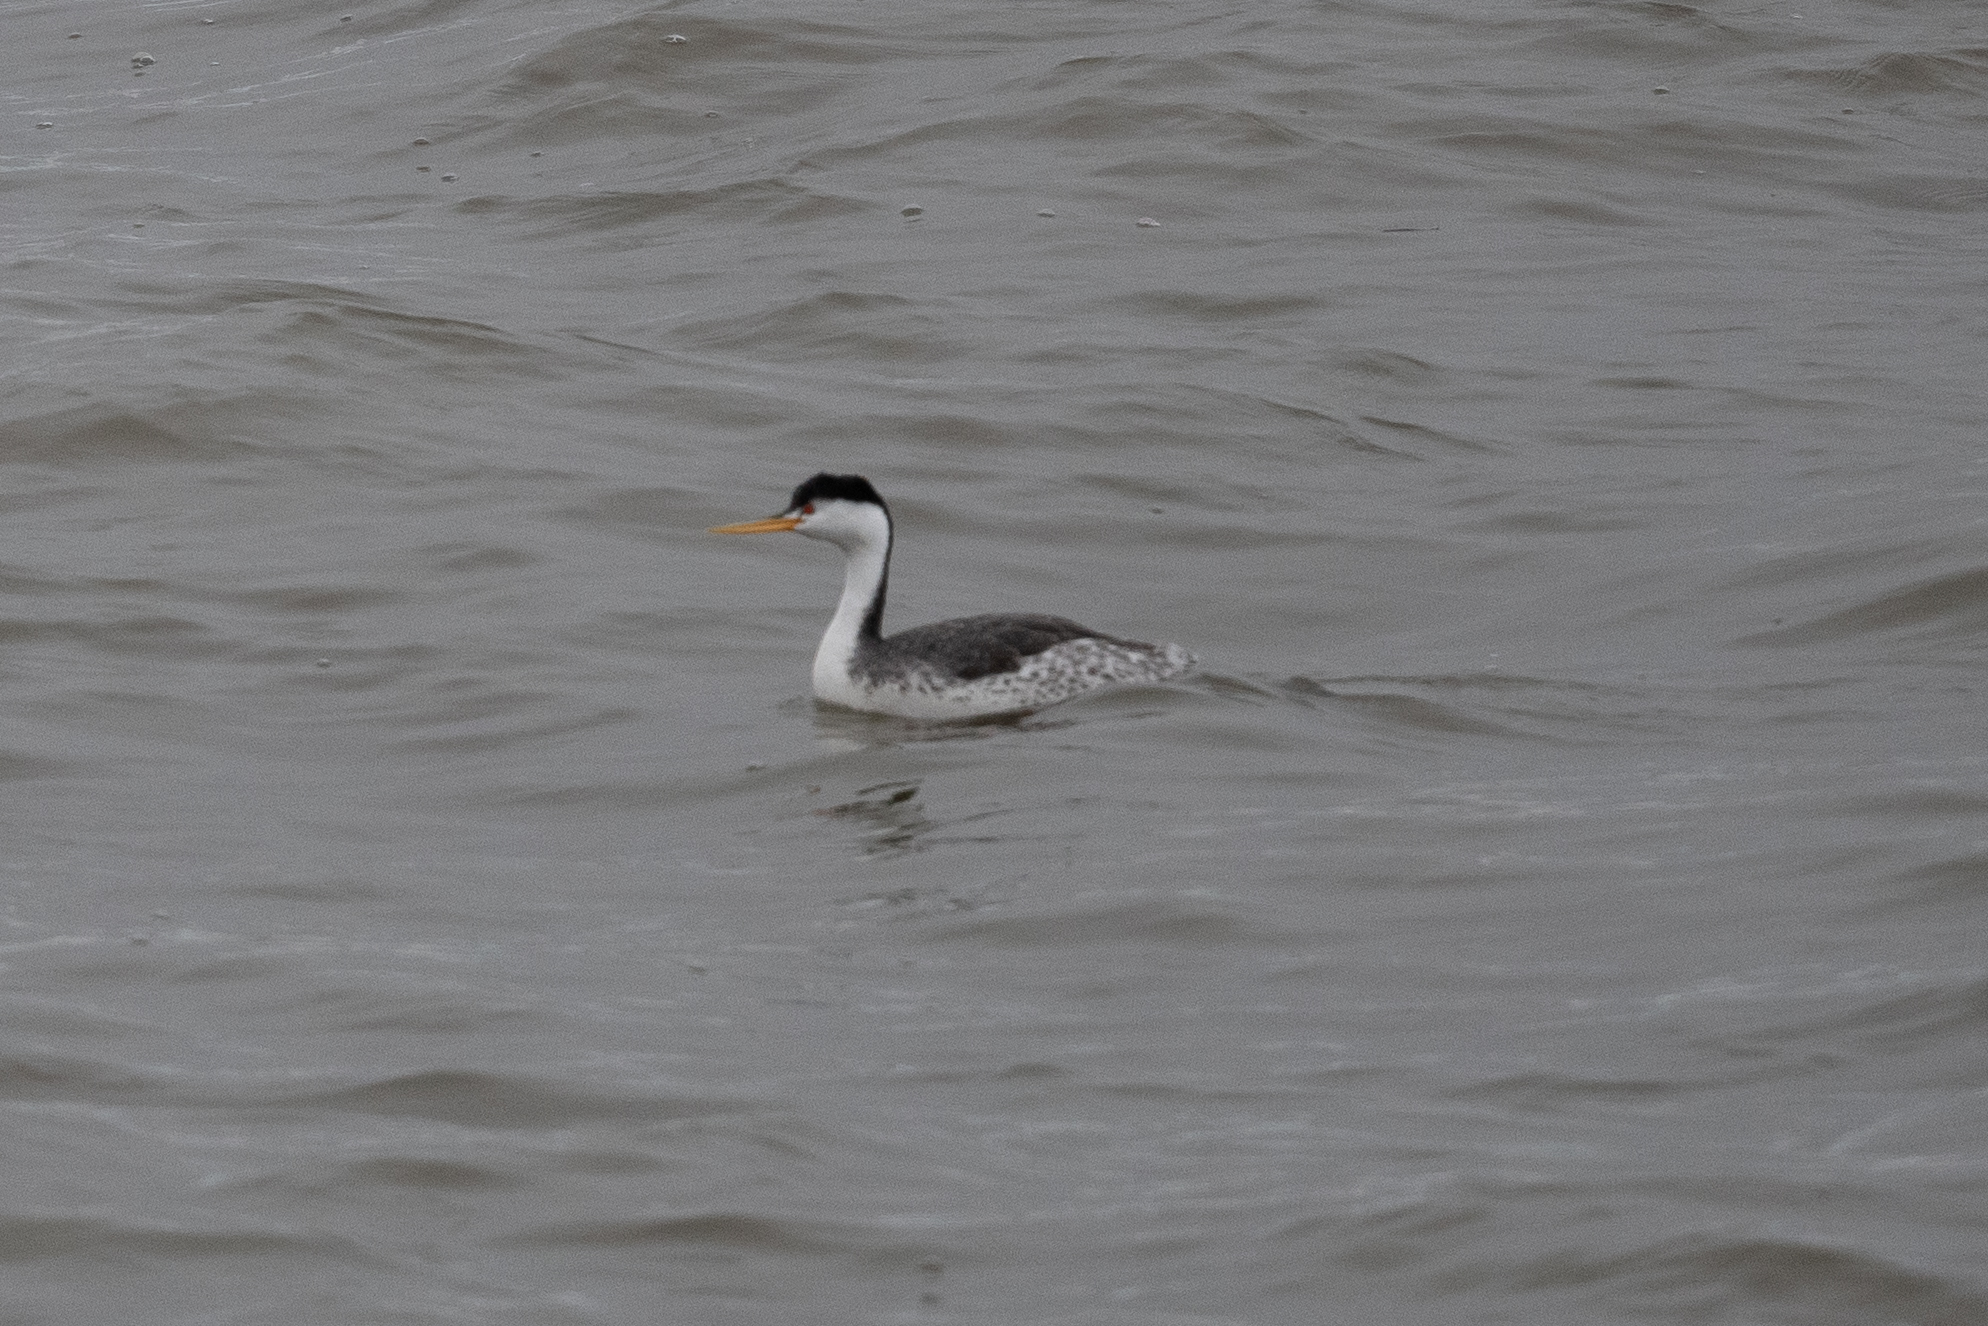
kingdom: Animalia
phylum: Chordata
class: Aves
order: Podicipediformes
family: Podicipedidae
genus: Aechmophorus
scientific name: Aechmophorus clarkii
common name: Clark's grebe
